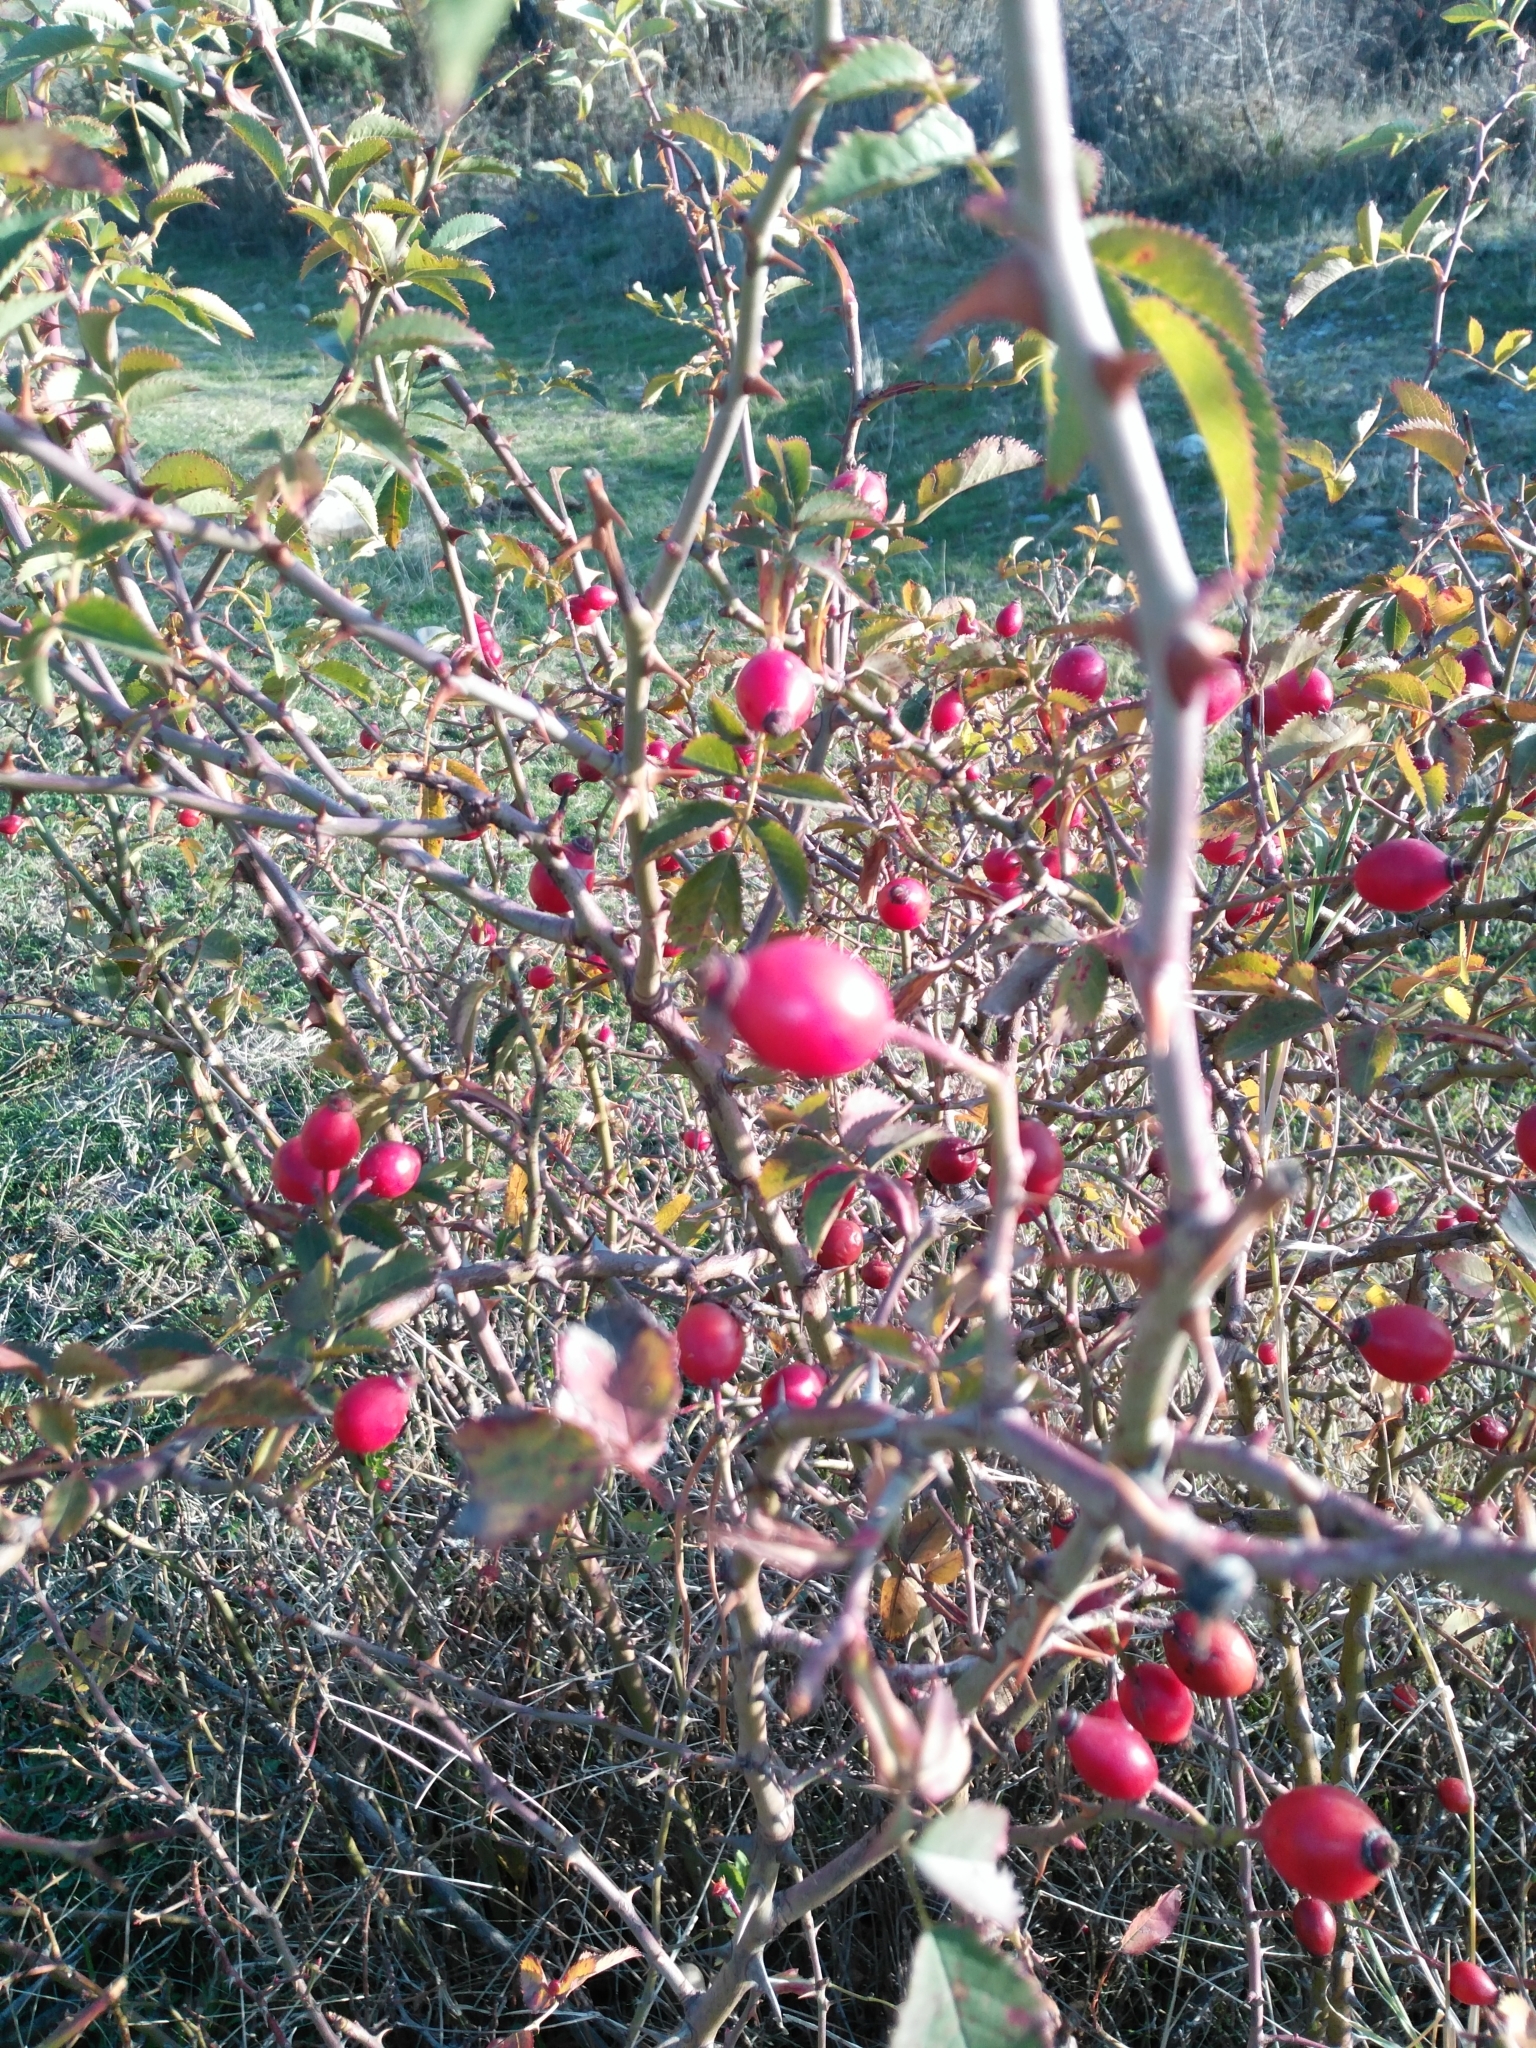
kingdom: Plantae
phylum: Tracheophyta
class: Magnoliopsida
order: Rosales
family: Rosaceae
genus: Rosa
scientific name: Rosa canina
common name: Dog rose
